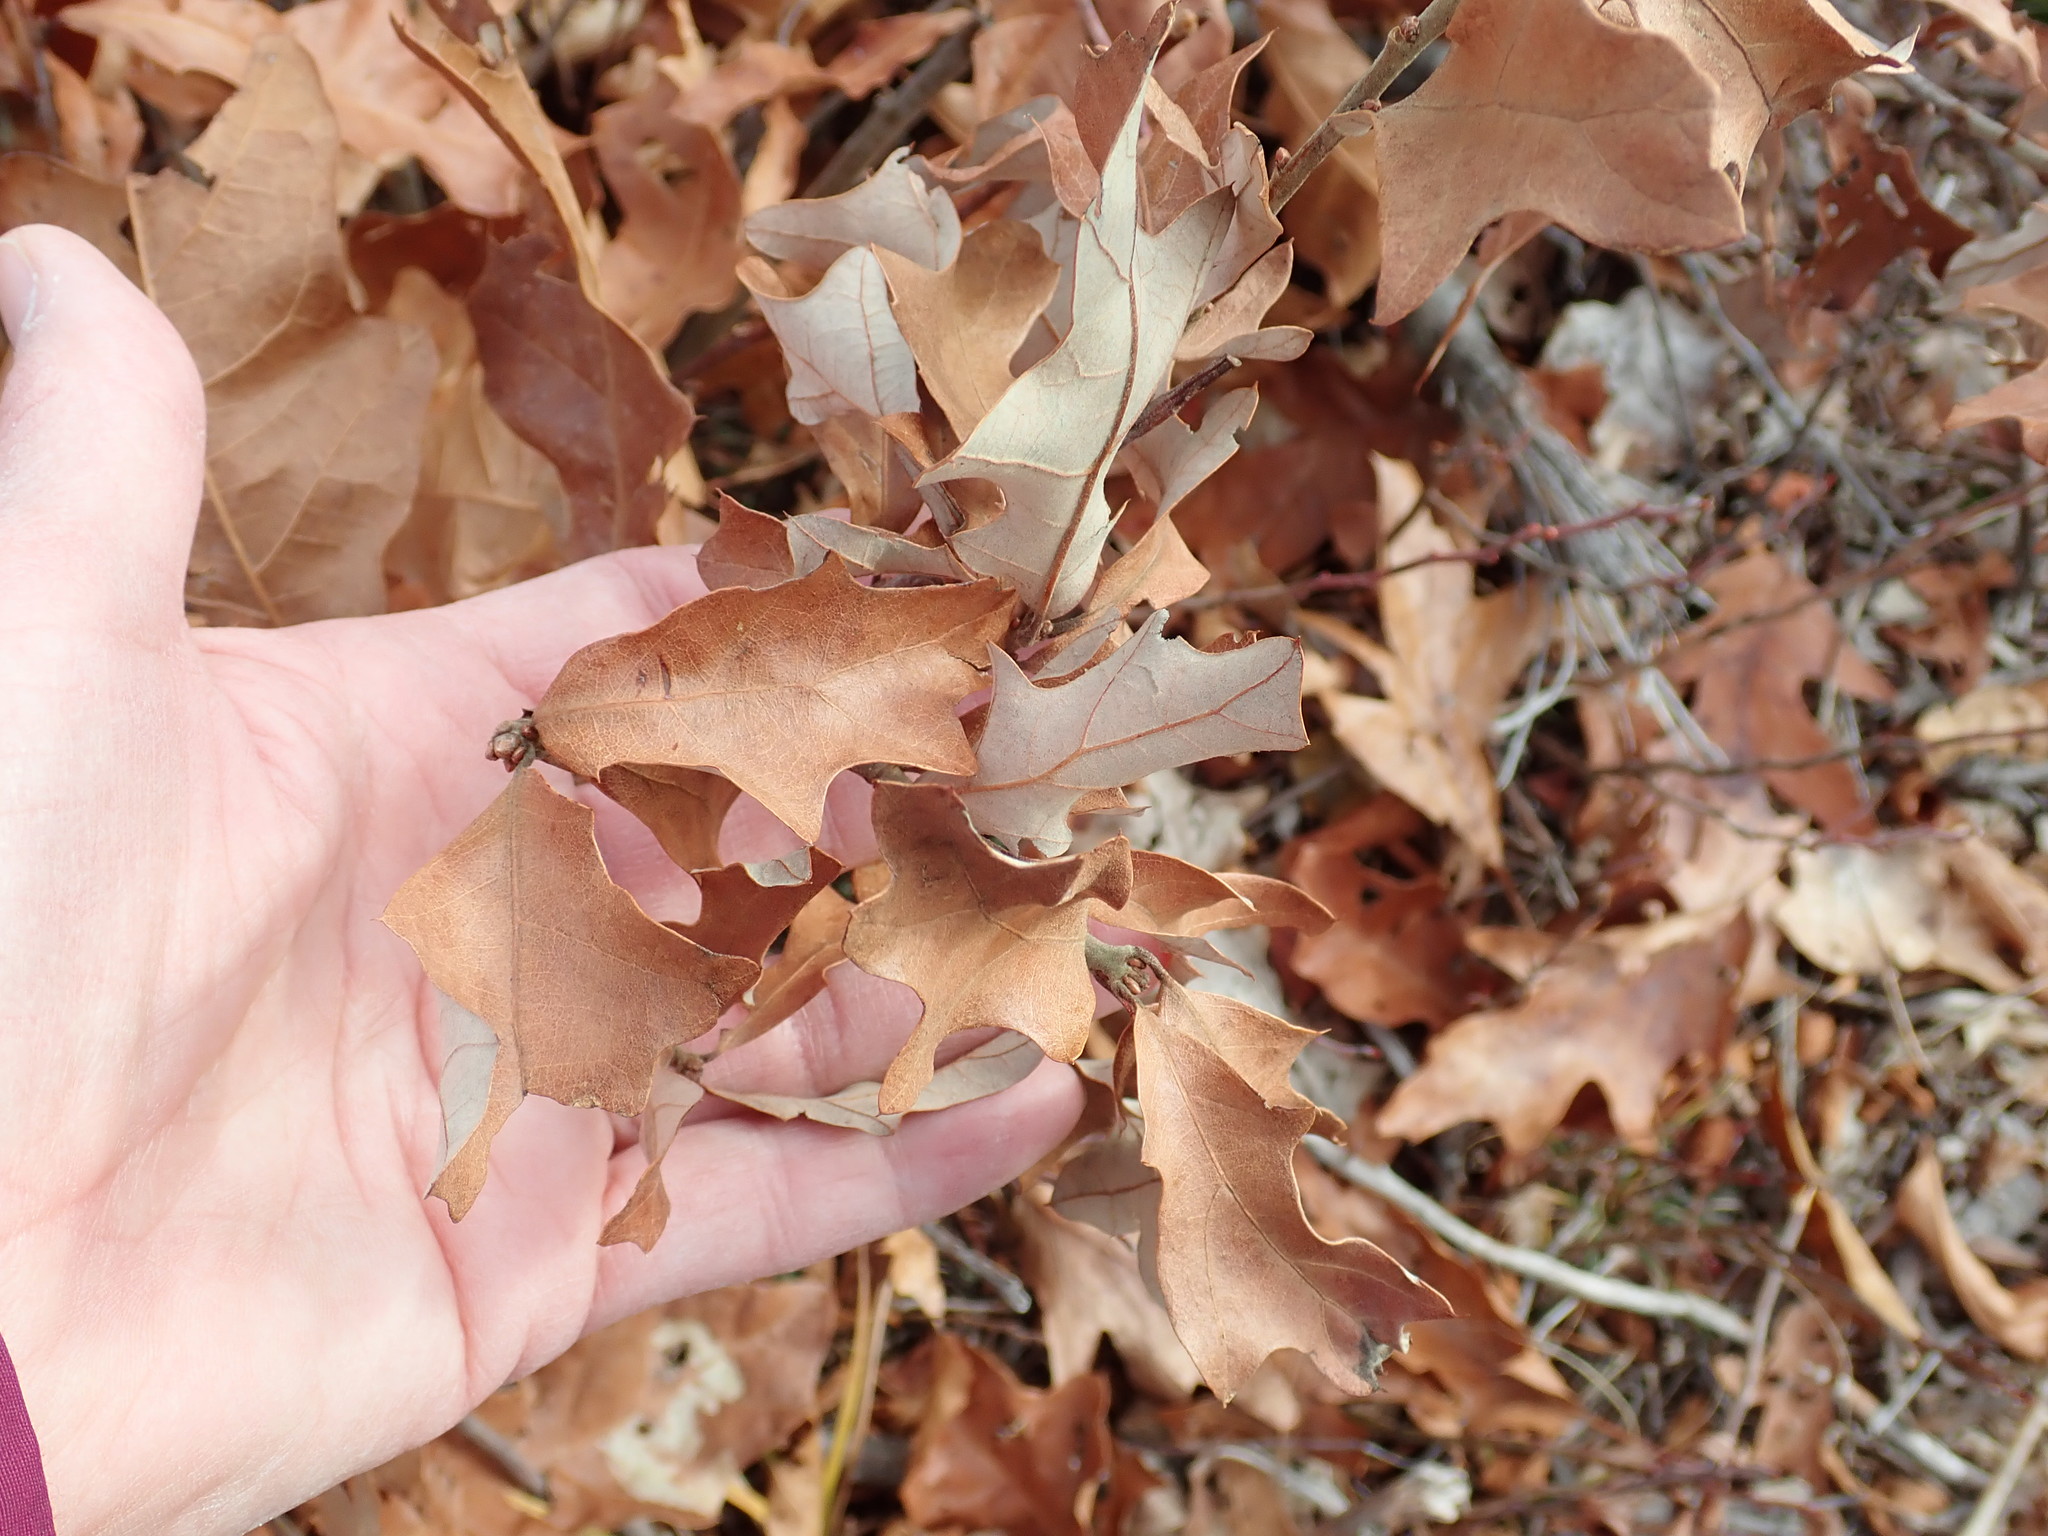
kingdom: Plantae
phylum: Tracheophyta
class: Magnoliopsida
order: Fagales
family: Fagaceae
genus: Quercus
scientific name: Quercus ilicifolia
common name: Bear oak
